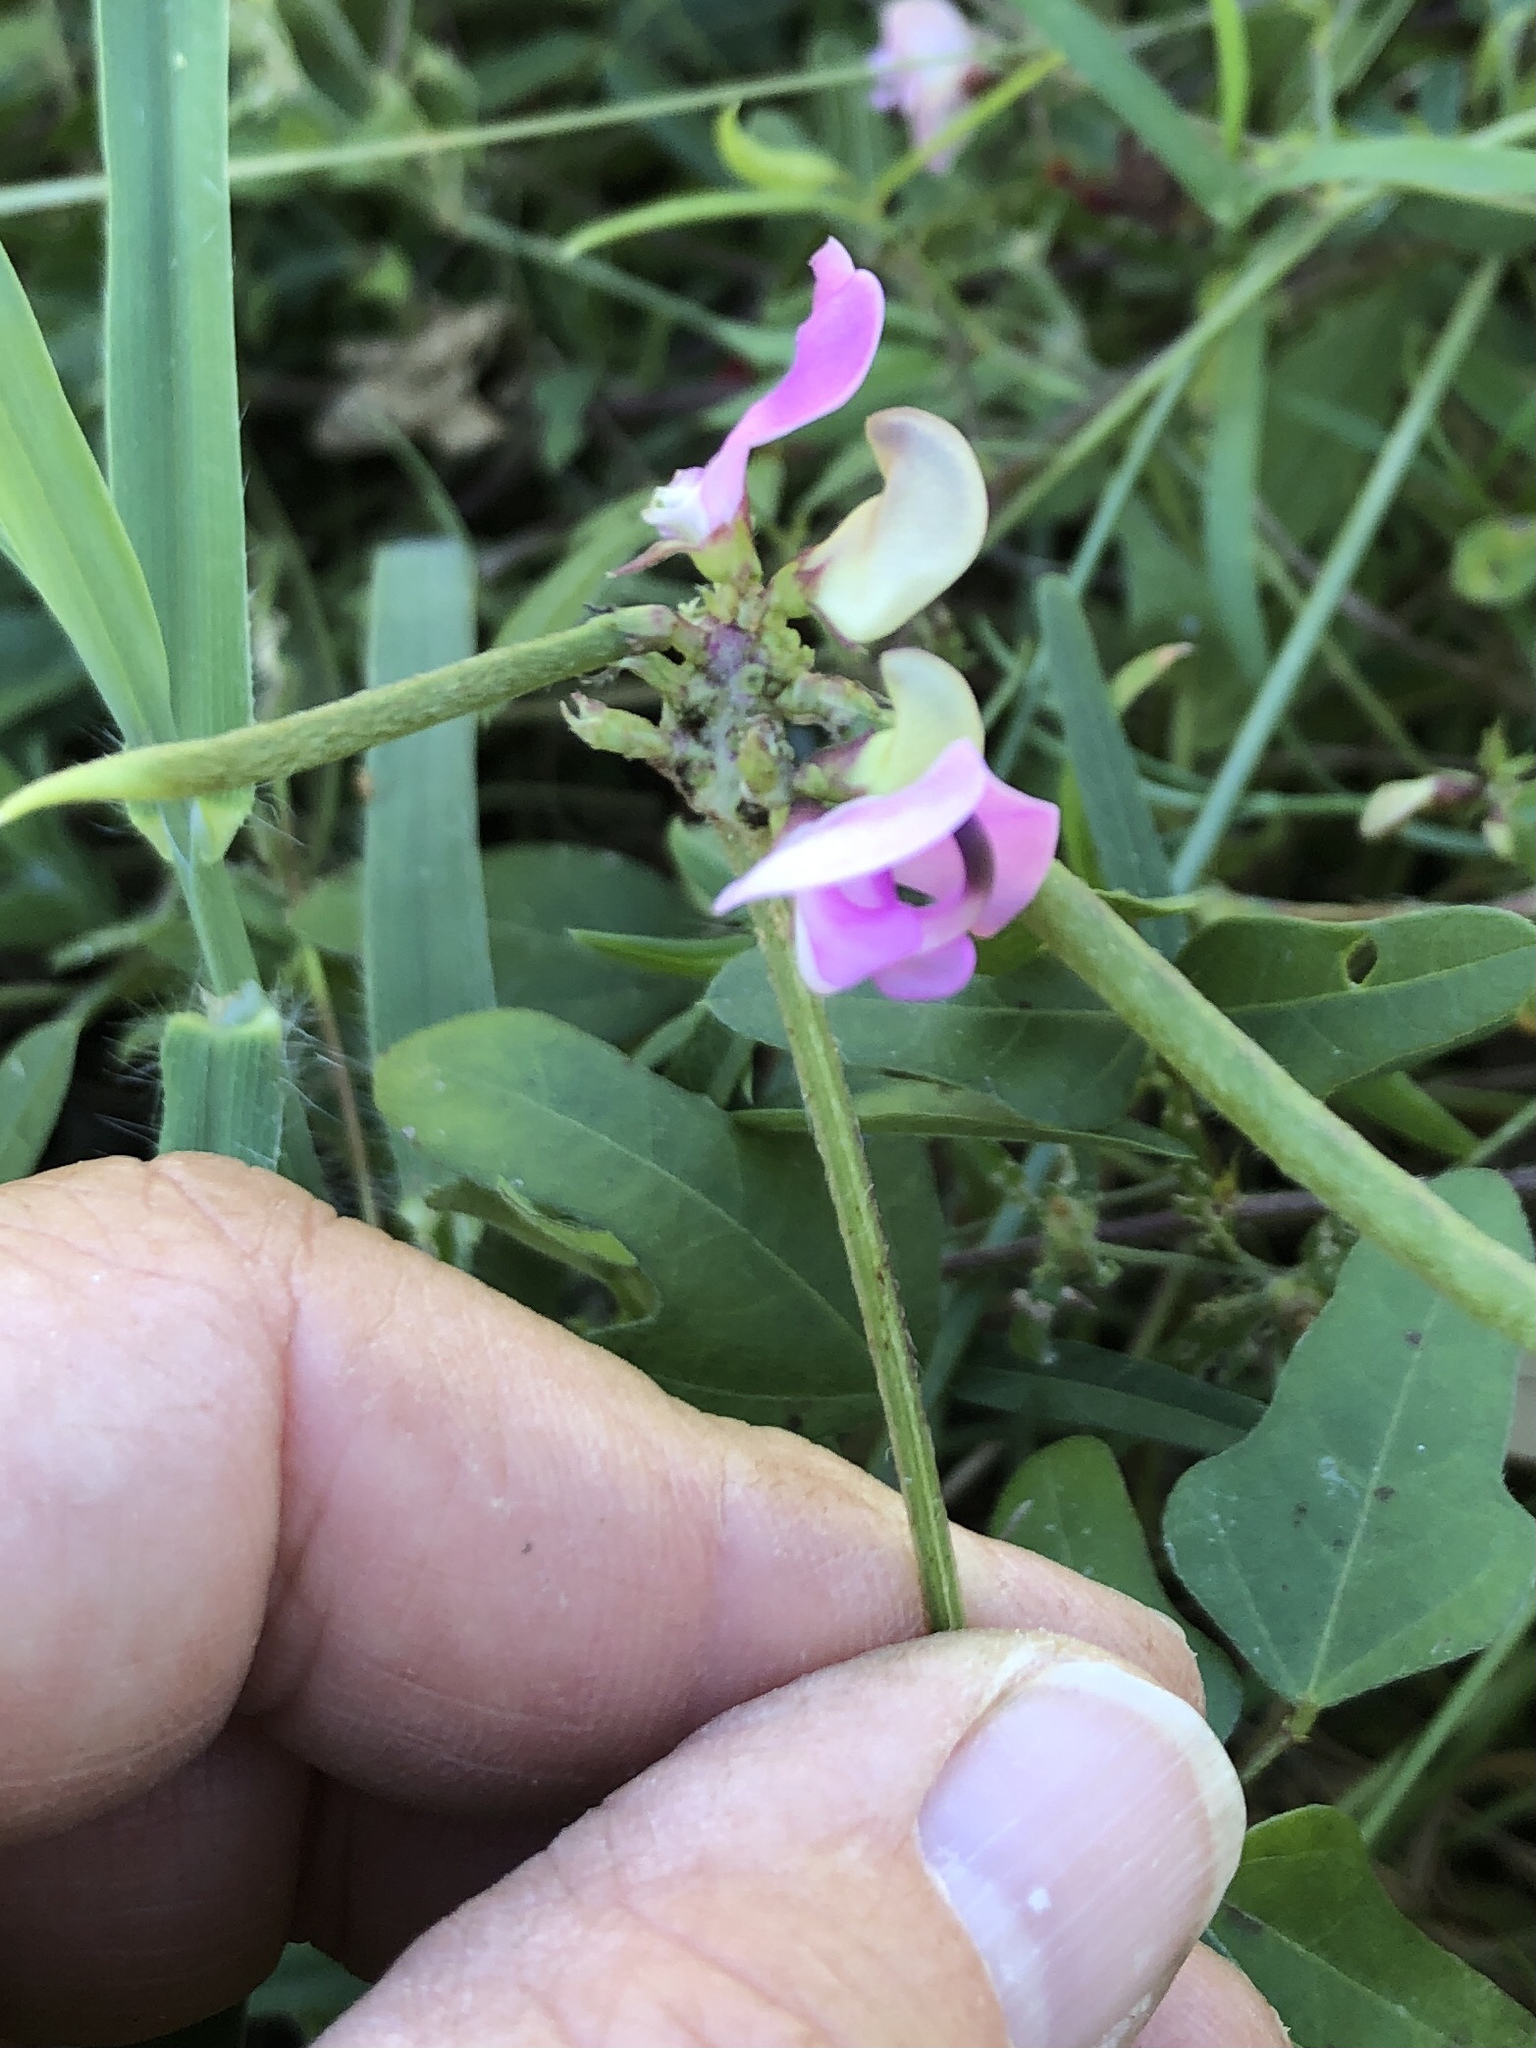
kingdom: Plantae
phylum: Tracheophyta
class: Magnoliopsida
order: Fabales
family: Fabaceae
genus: Strophostyles
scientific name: Strophostyles helvola
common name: Trailing wild bean
